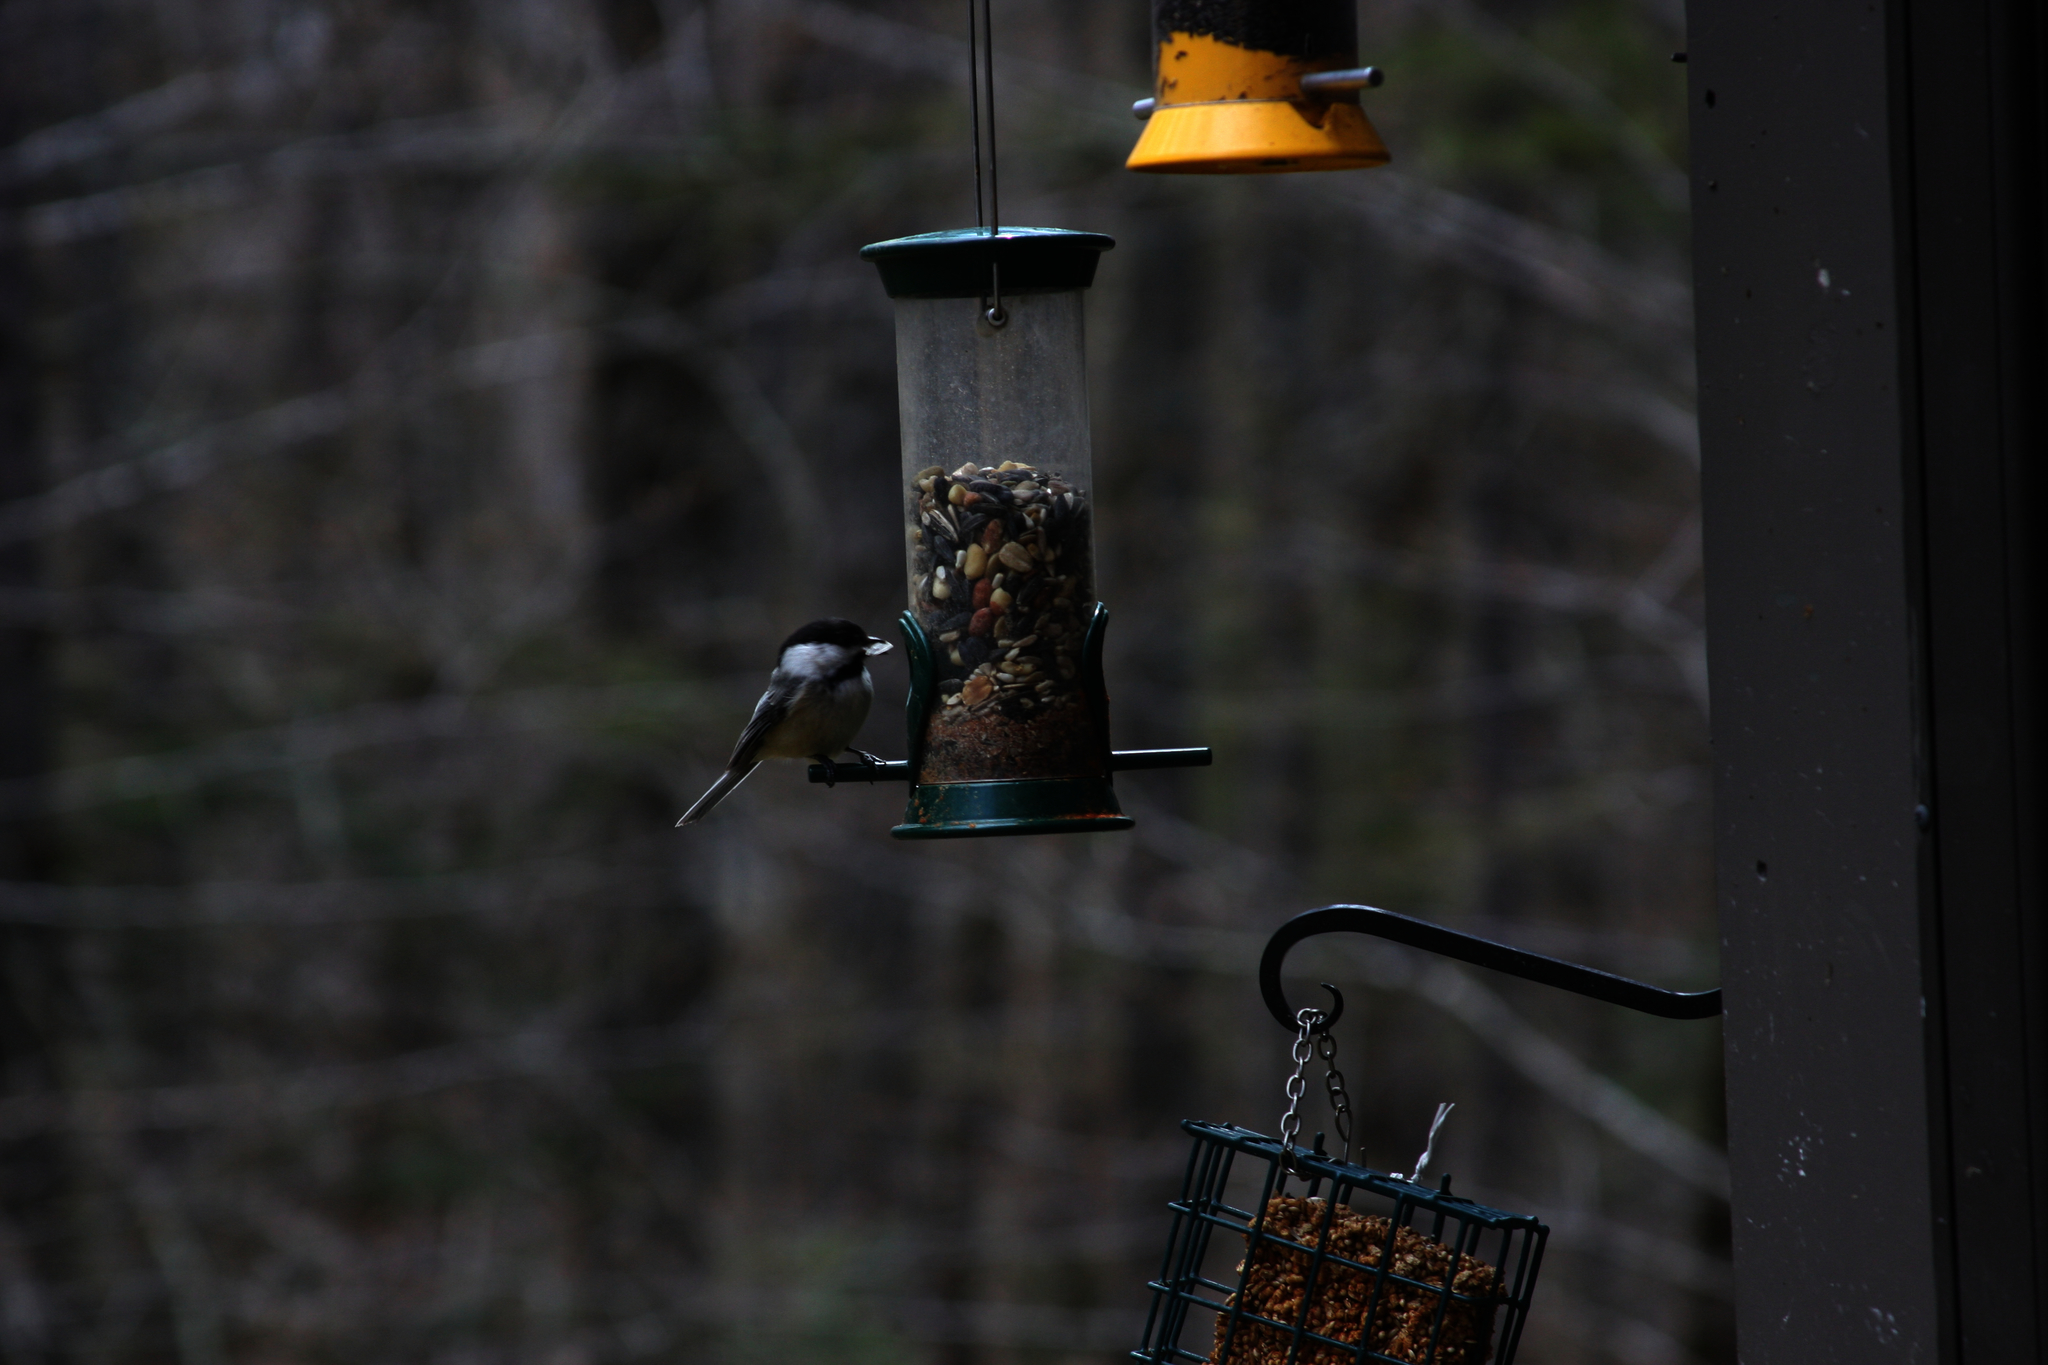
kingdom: Animalia
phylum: Chordata
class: Aves
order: Passeriformes
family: Paridae
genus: Poecile
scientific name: Poecile atricapillus
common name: Black-capped chickadee
